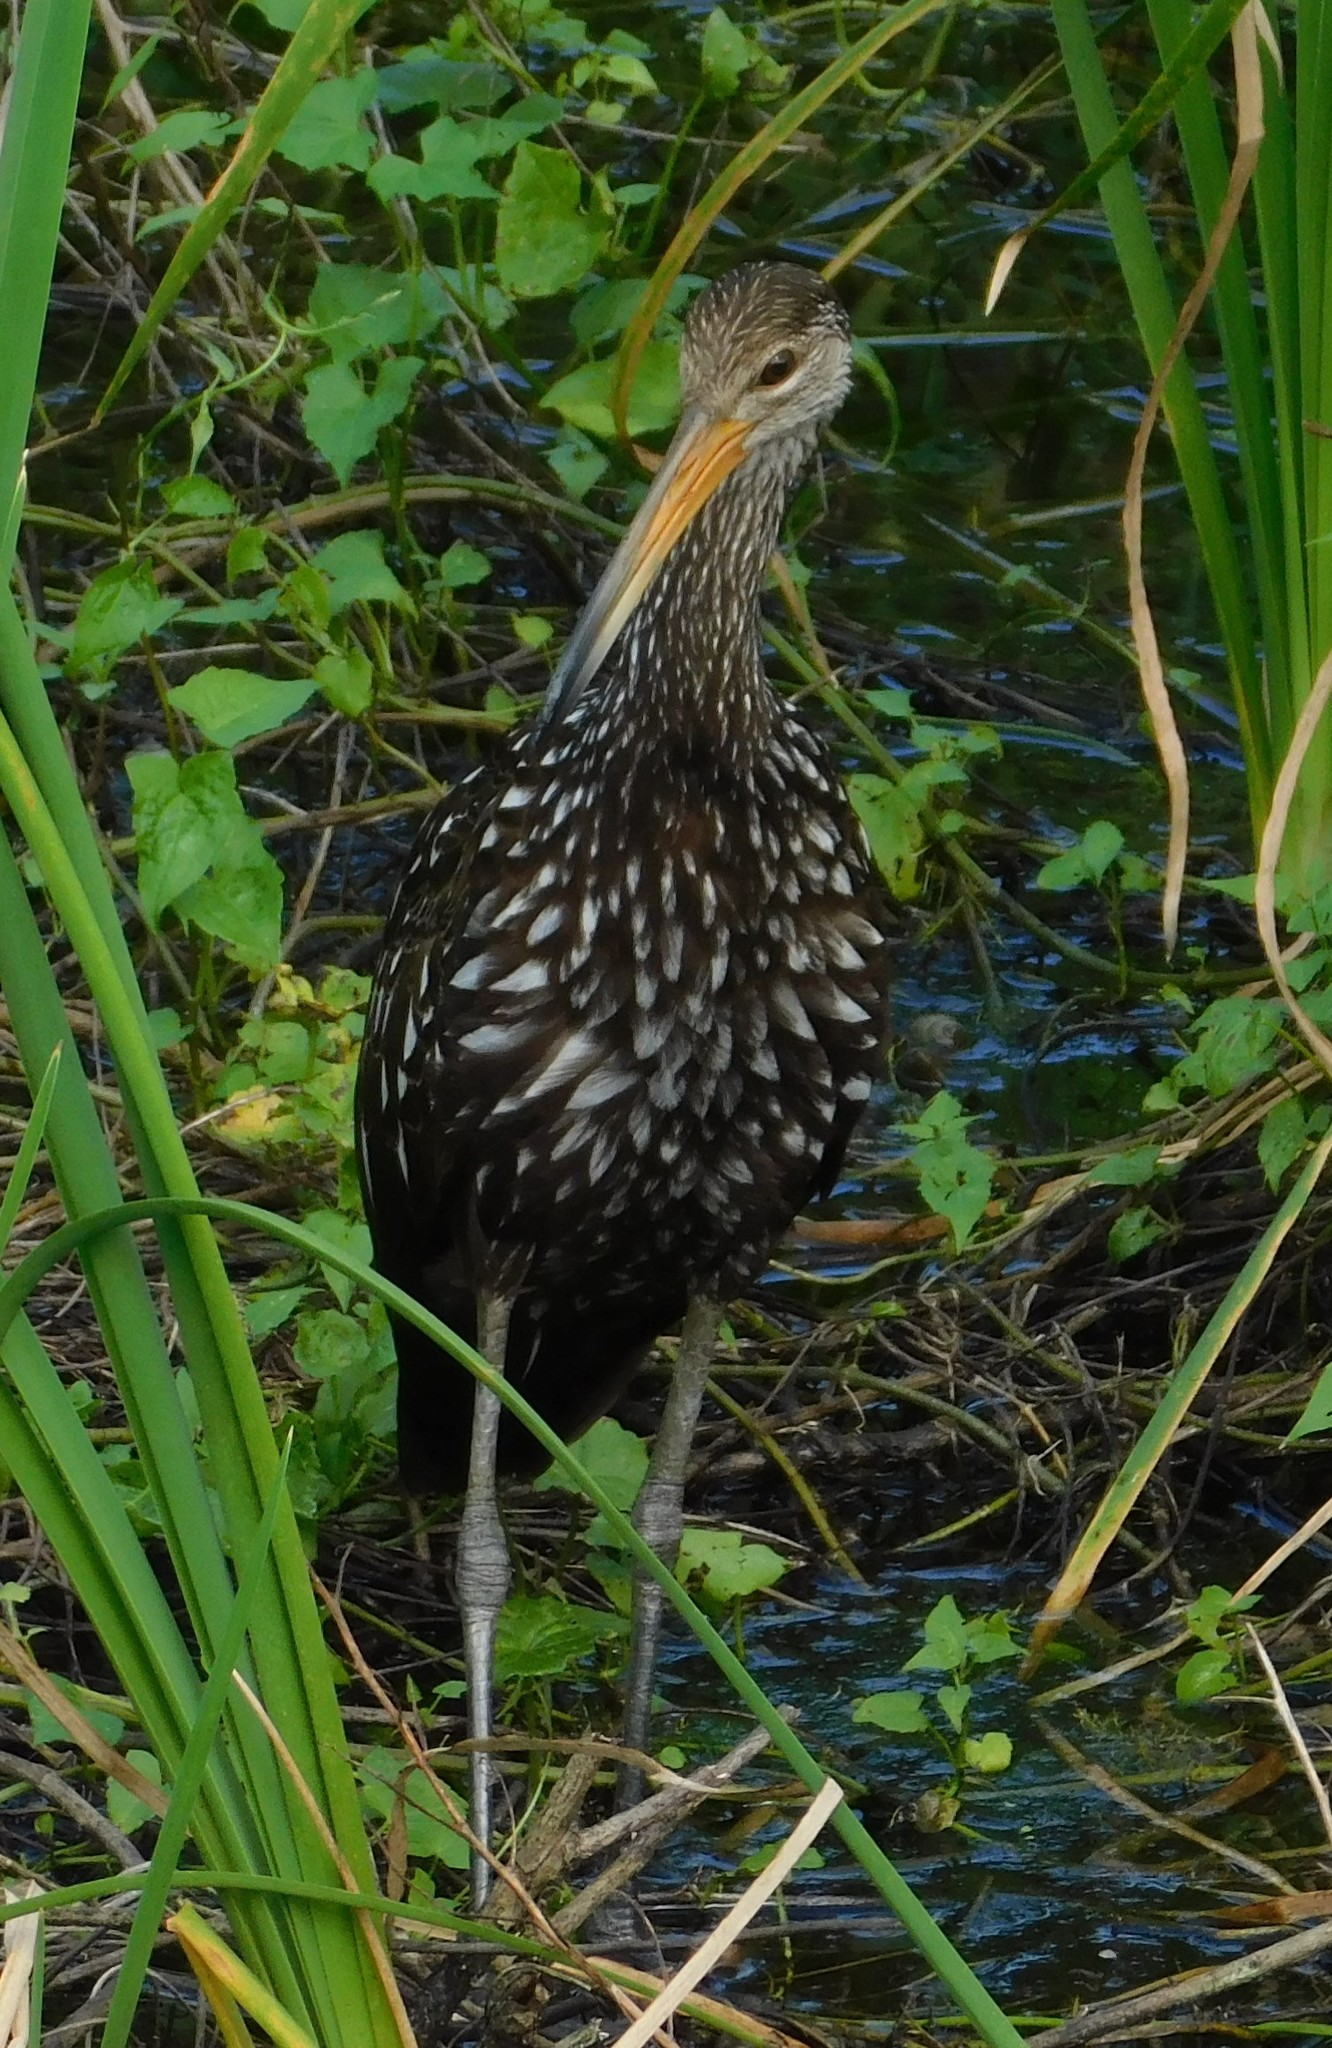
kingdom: Animalia
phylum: Chordata
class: Aves
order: Gruiformes
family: Aramidae
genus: Aramus
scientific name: Aramus guarauna
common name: Limpkin
